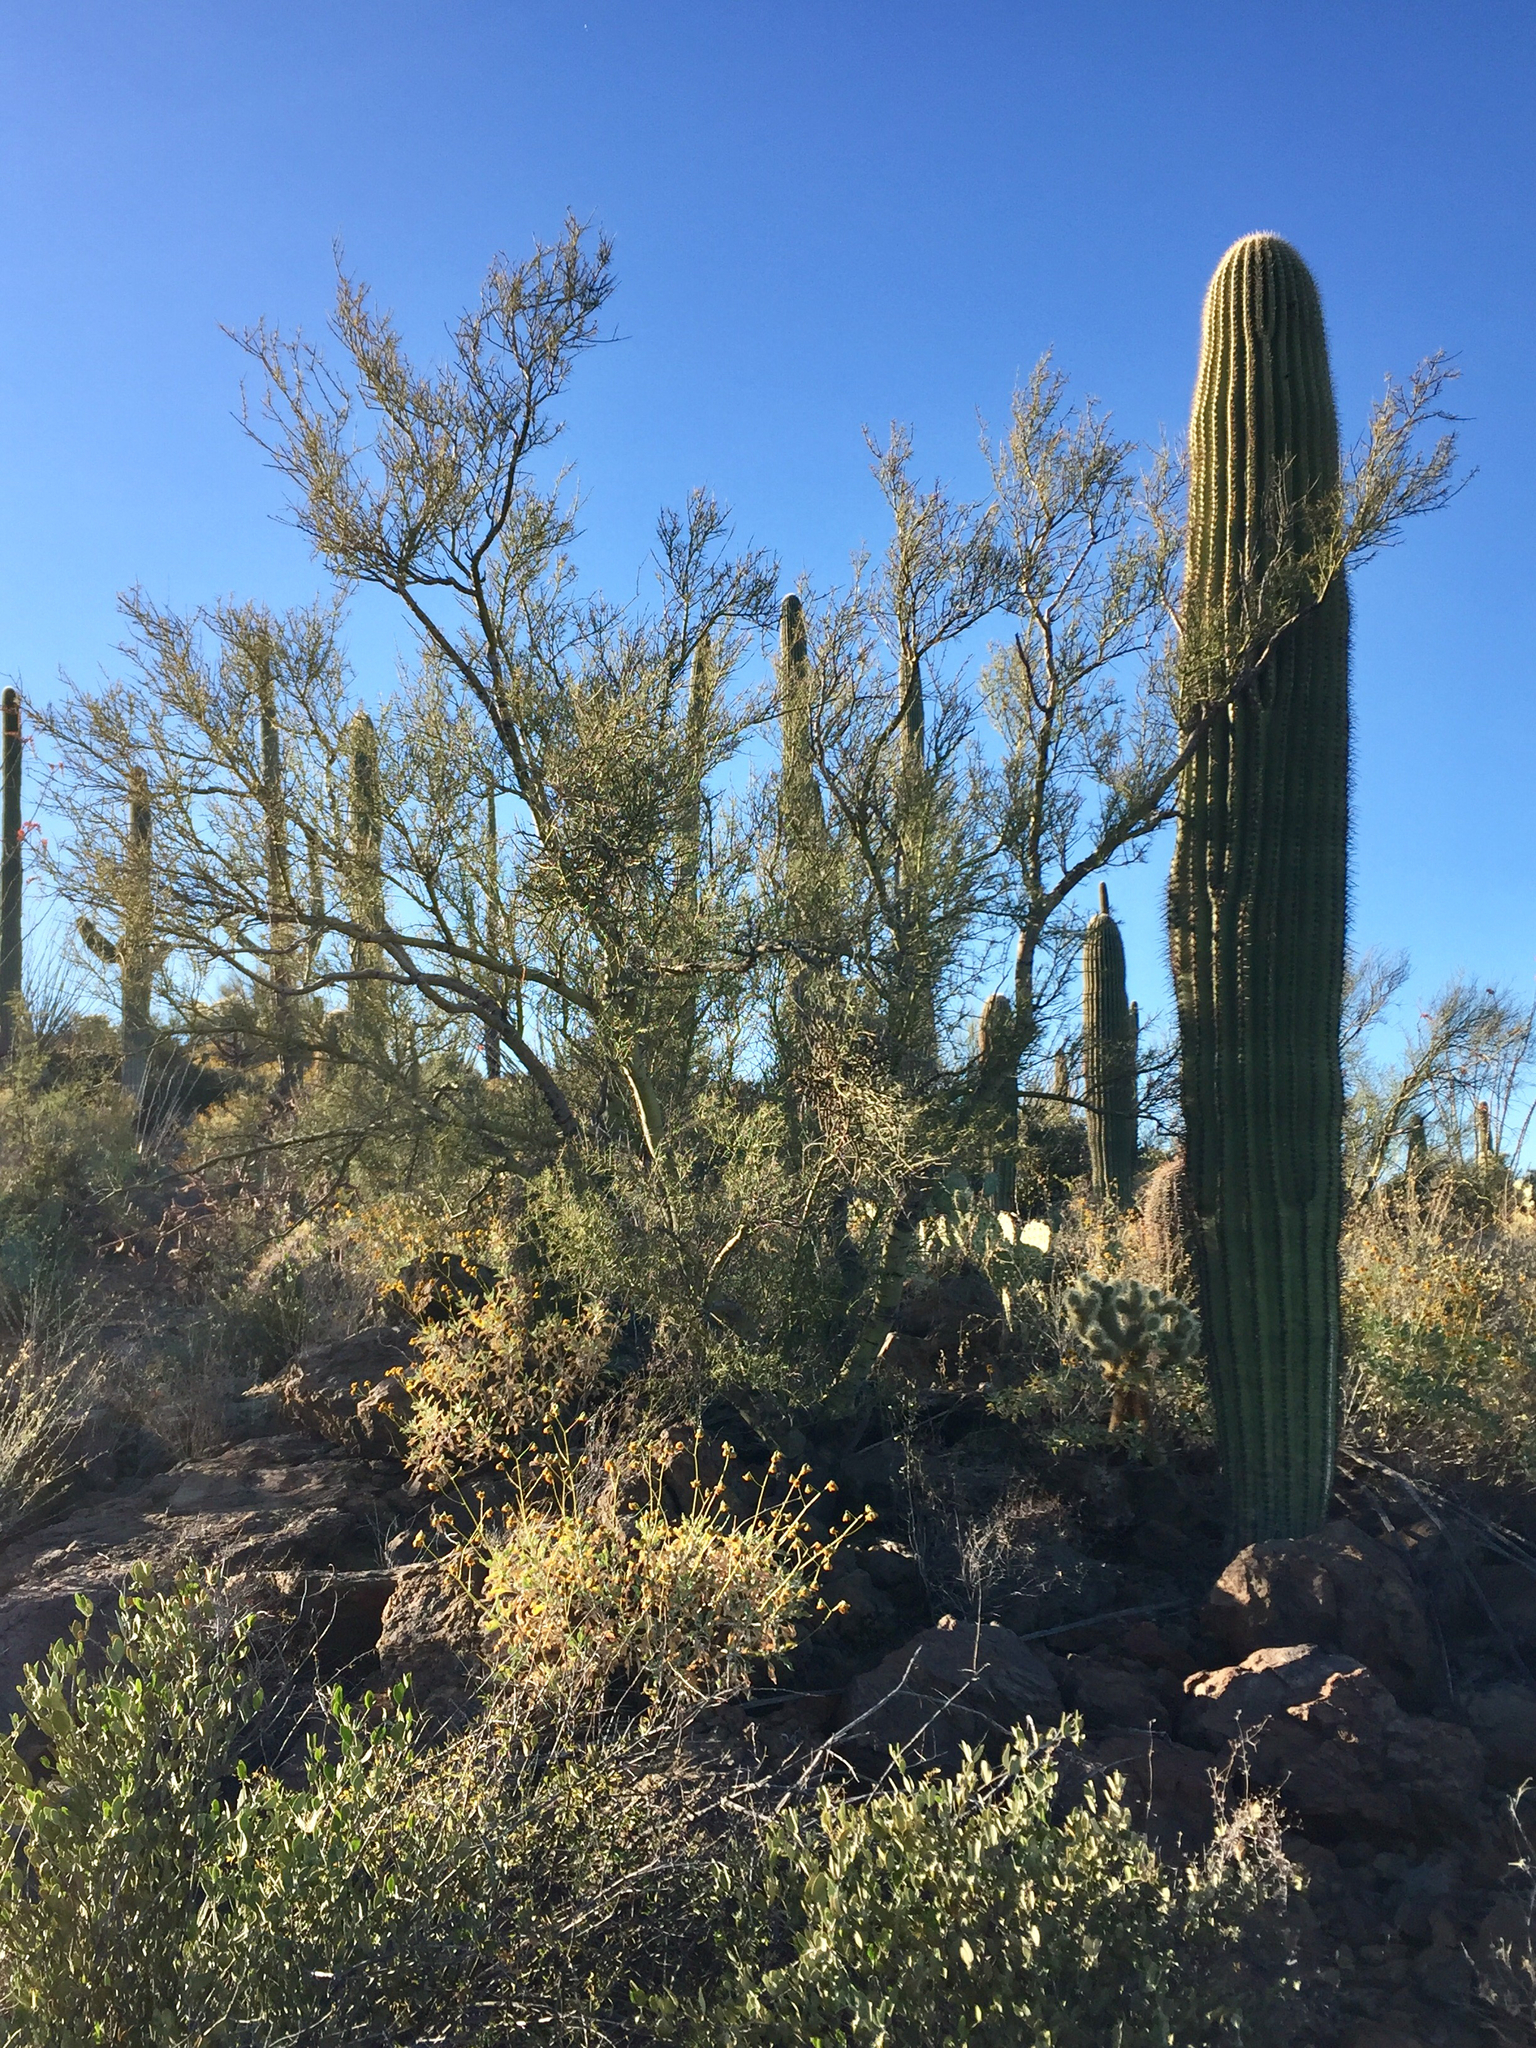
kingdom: Plantae
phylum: Tracheophyta
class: Magnoliopsida
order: Fabales
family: Fabaceae
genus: Parkinsonia
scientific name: Parkinsonia microphylla
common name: Yellow paloverde
